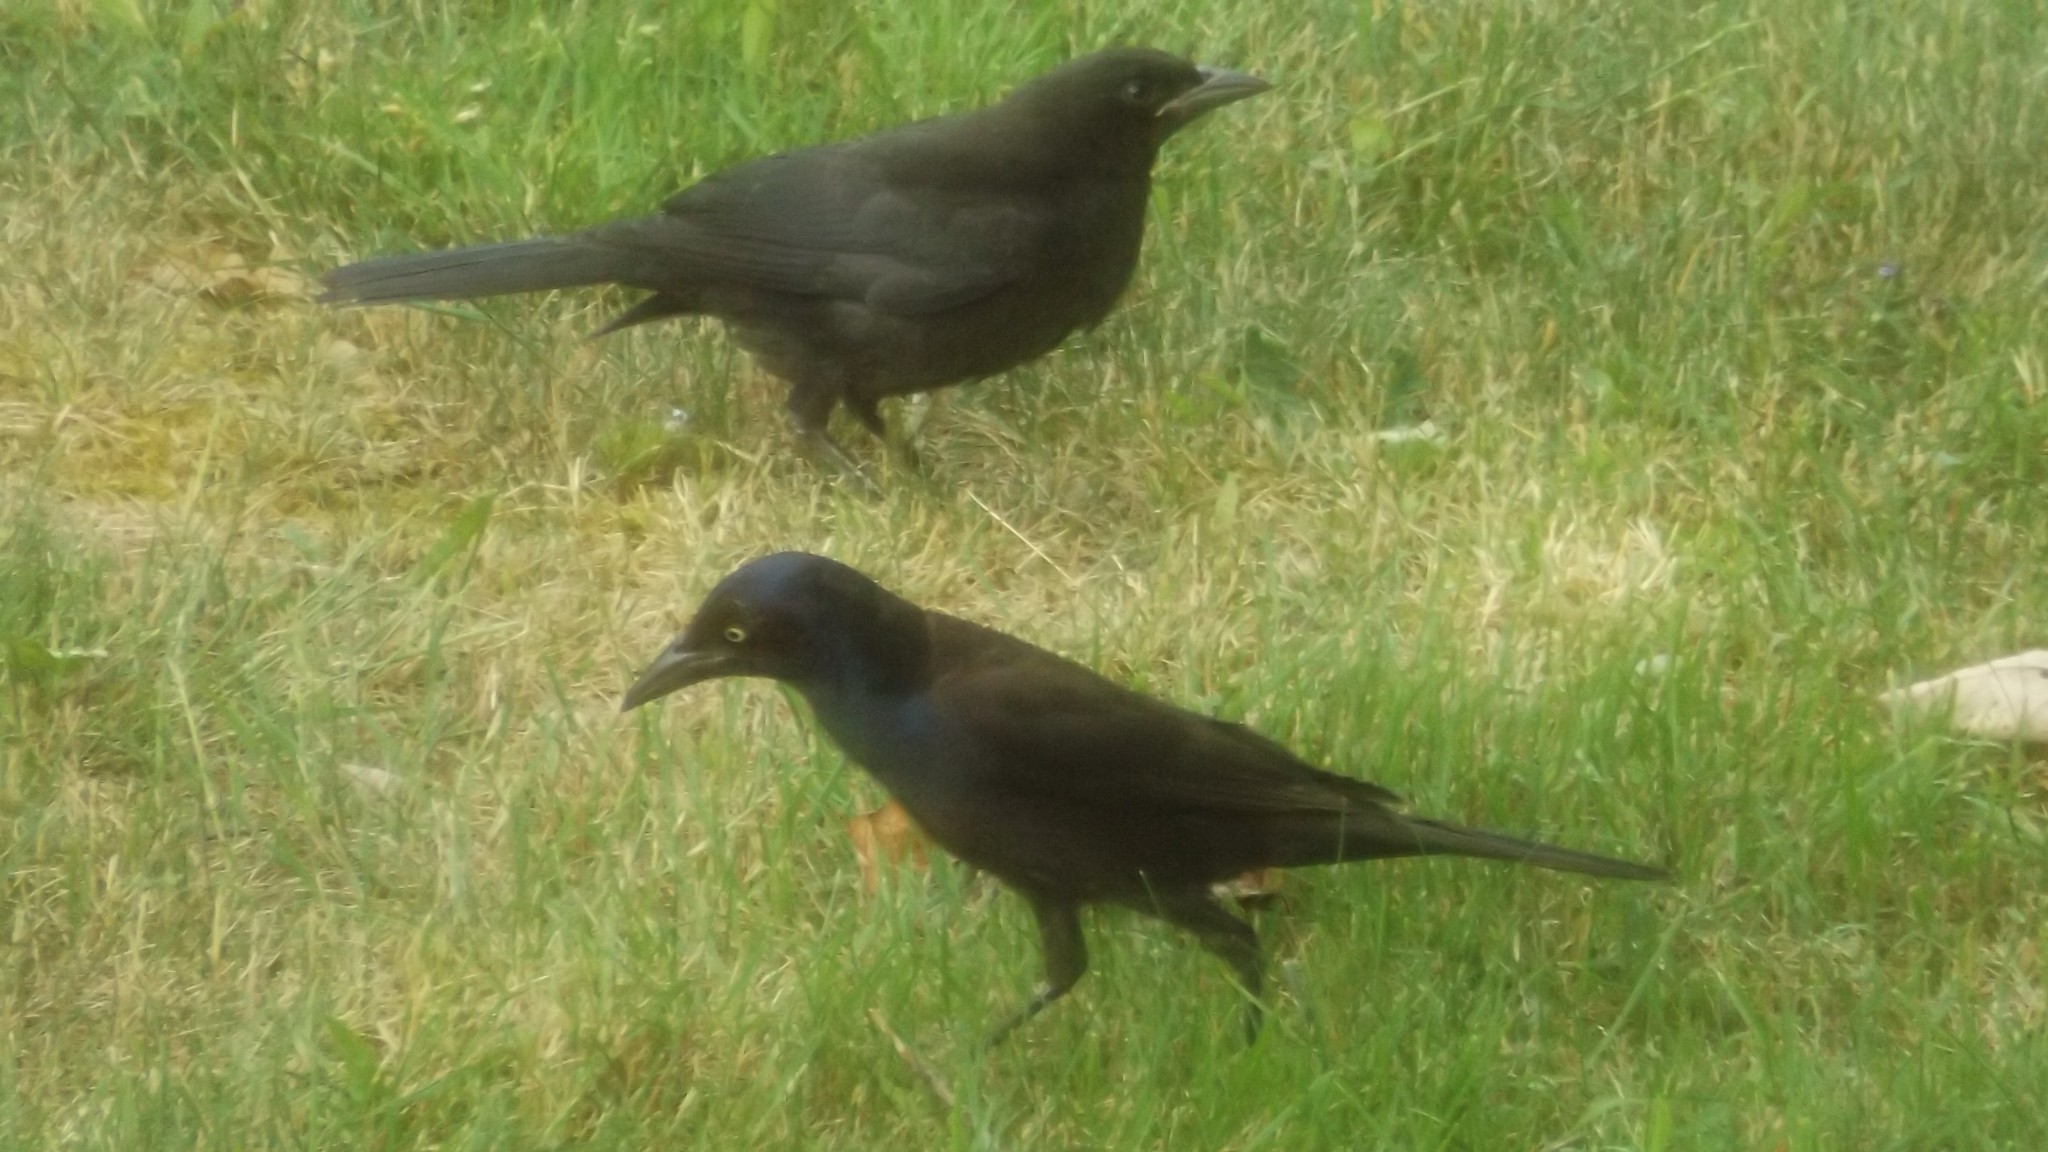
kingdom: Animalia
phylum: Chordata
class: Aves
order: Passeriformes
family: Icteridae
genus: Quiscalus
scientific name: Quiscalus quiscula
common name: Common grackle
